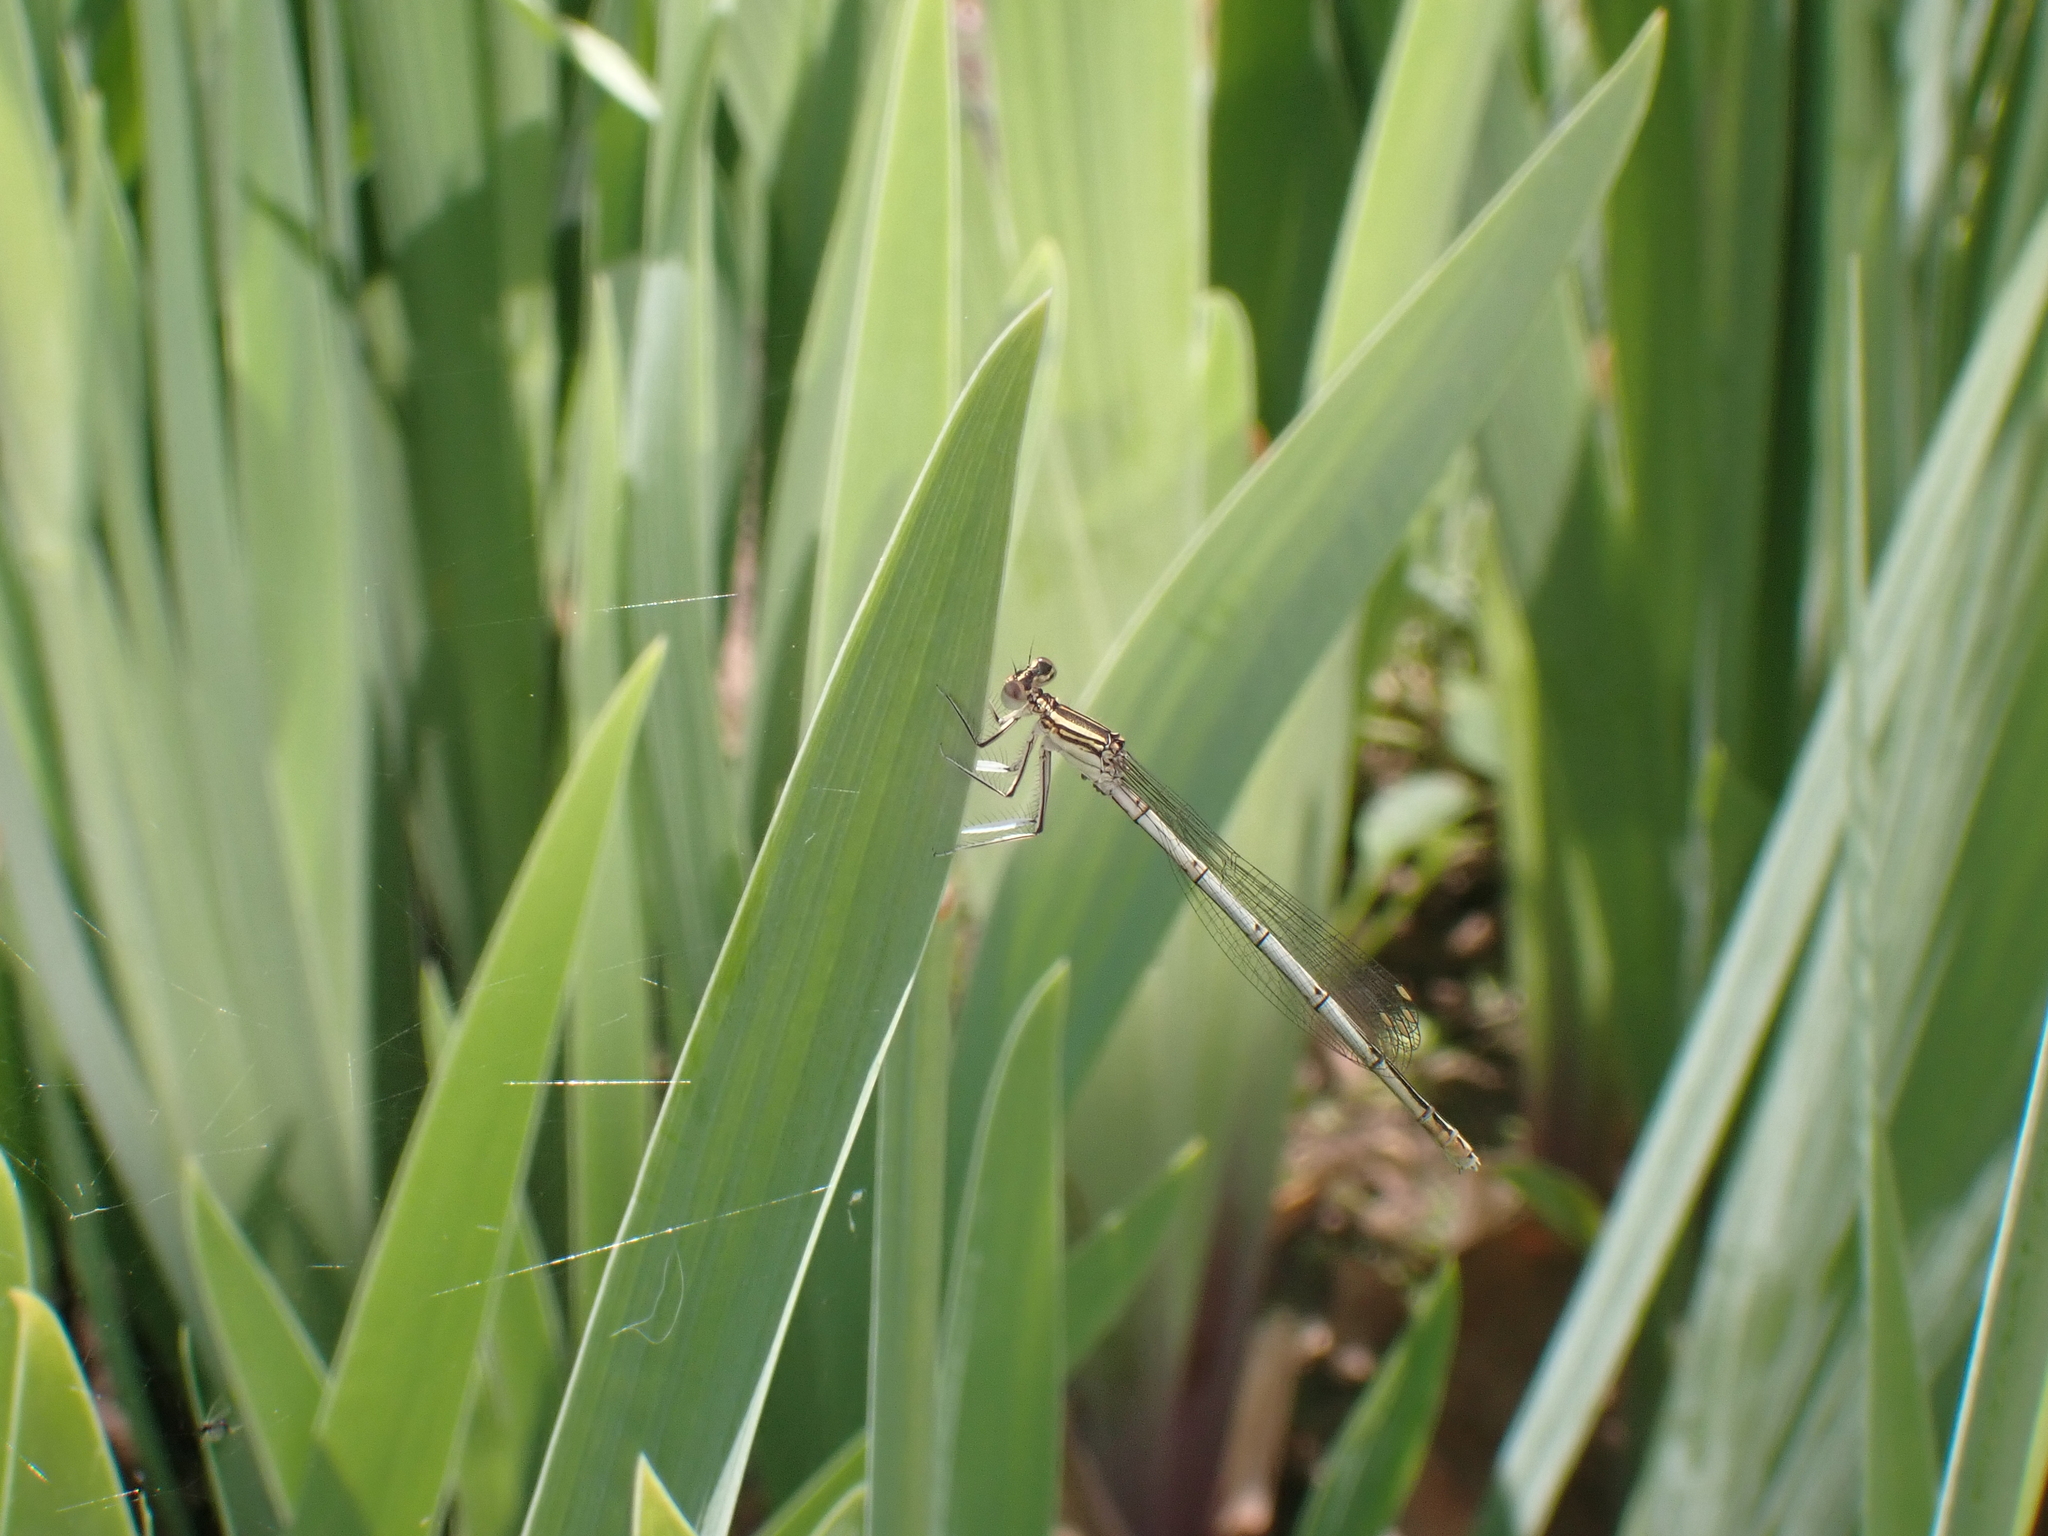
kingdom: Animalia
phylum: Arthropoda
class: Insecta
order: Odonata
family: Platycnemididae
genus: Platycnemis
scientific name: Platycnemis pennipes
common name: White-legged damselfly
